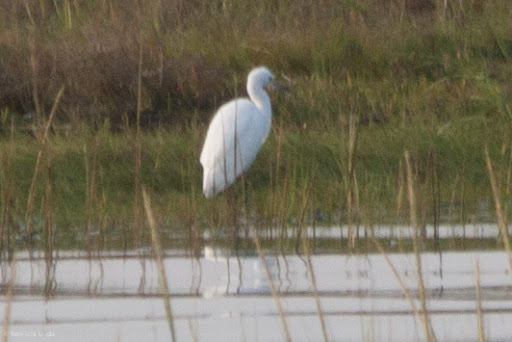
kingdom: Animalia
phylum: Chordata
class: Aves
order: Pelecaniformes
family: Ardeidae
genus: Egretta
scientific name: Egretta thula
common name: Snowy egret
